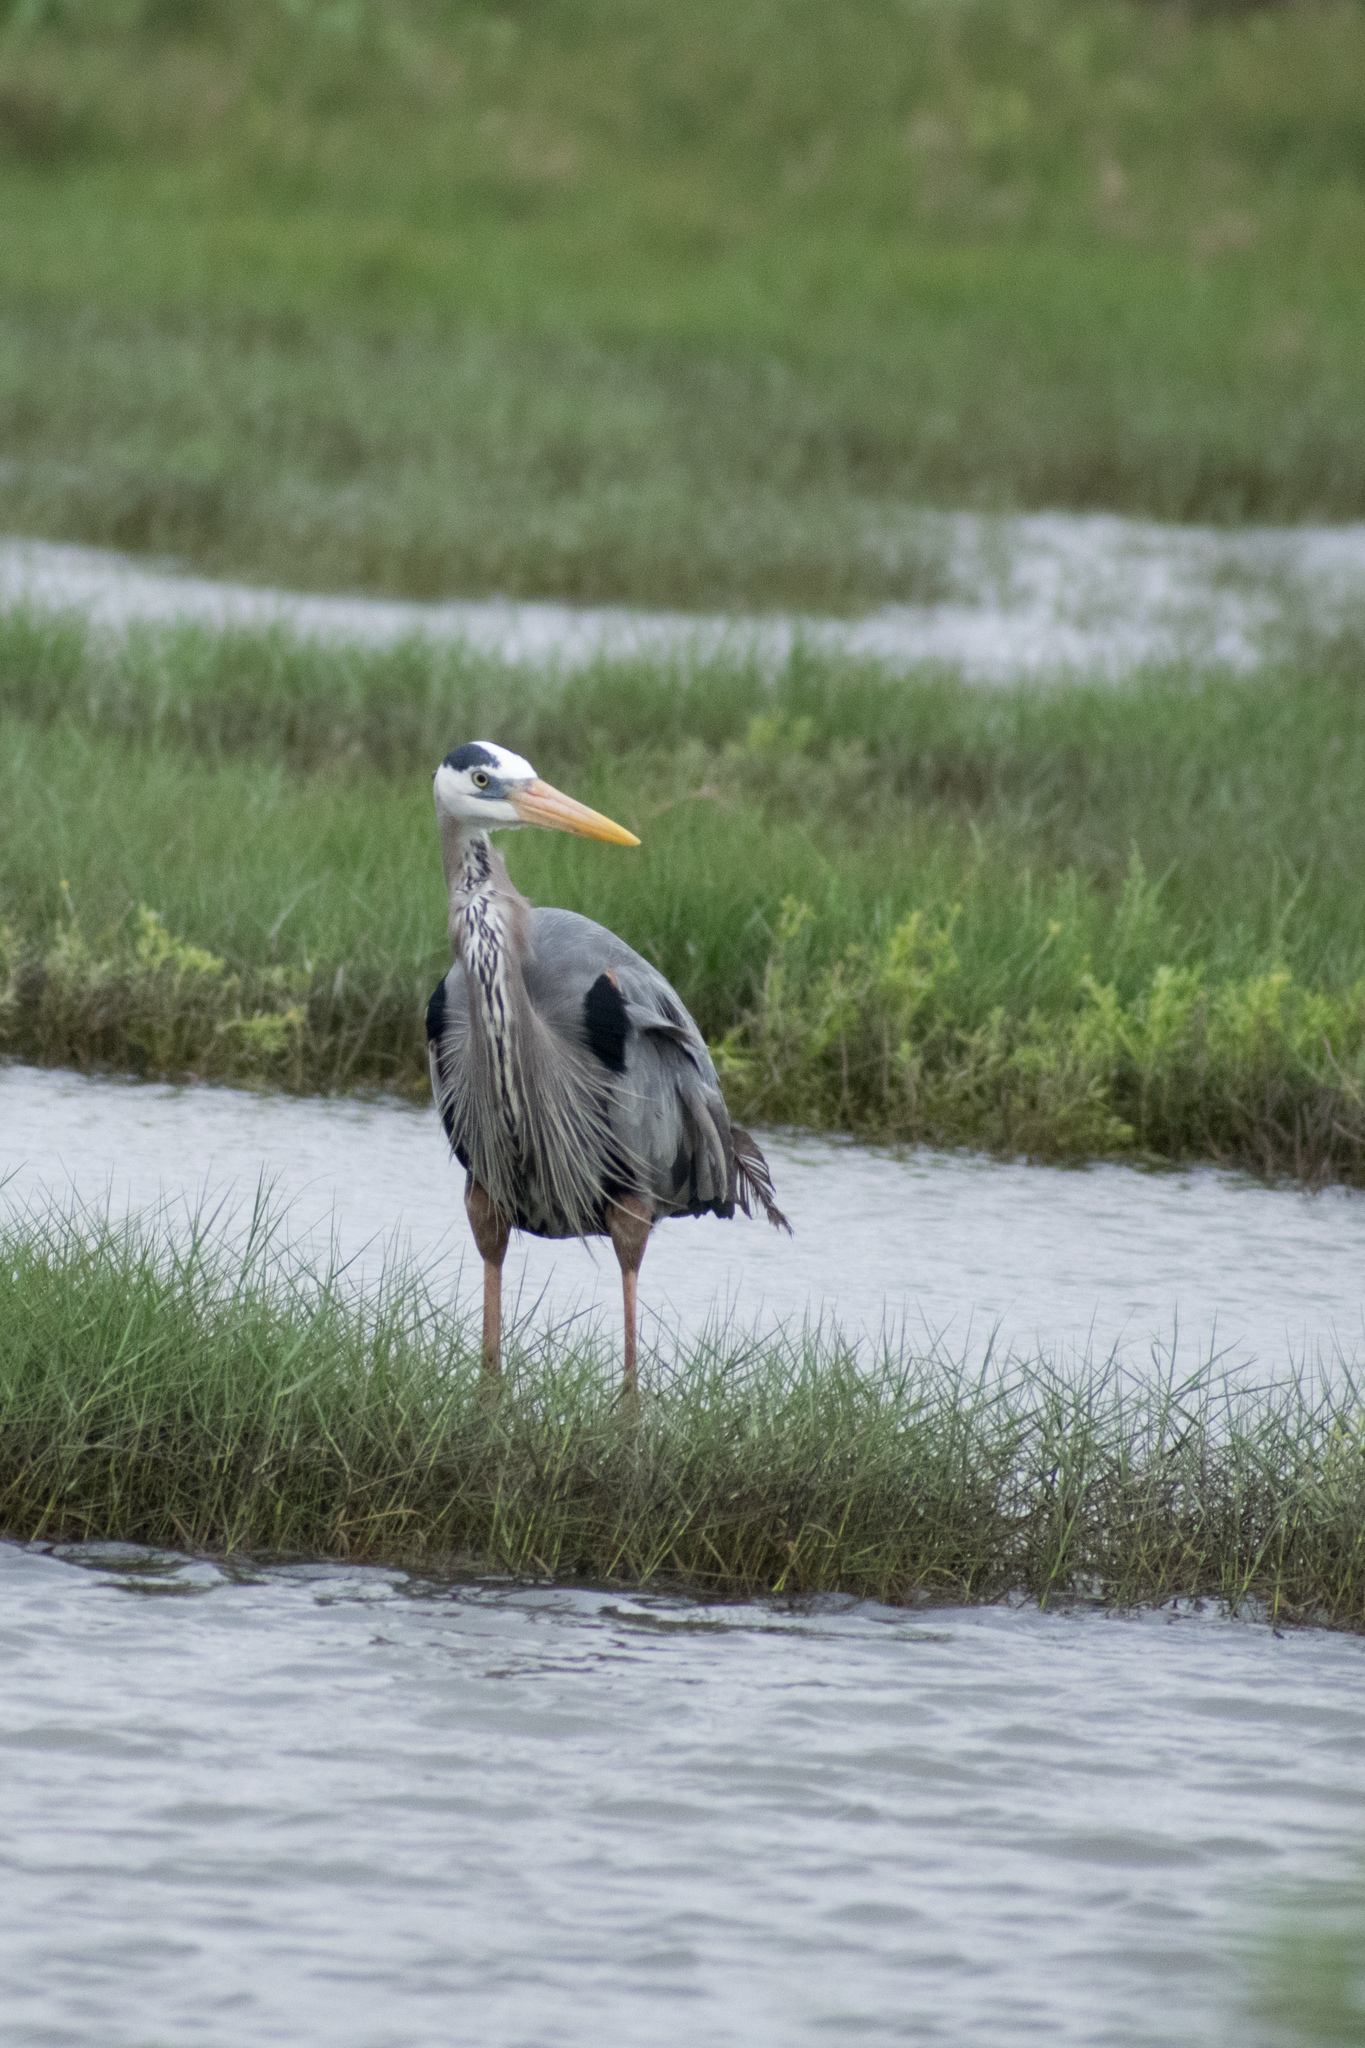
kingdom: Animalia
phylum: Chordata
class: Aves
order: Pelecaniformes
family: Ardeidae
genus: Ardea
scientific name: Ardea herodias
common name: Great blue heron
